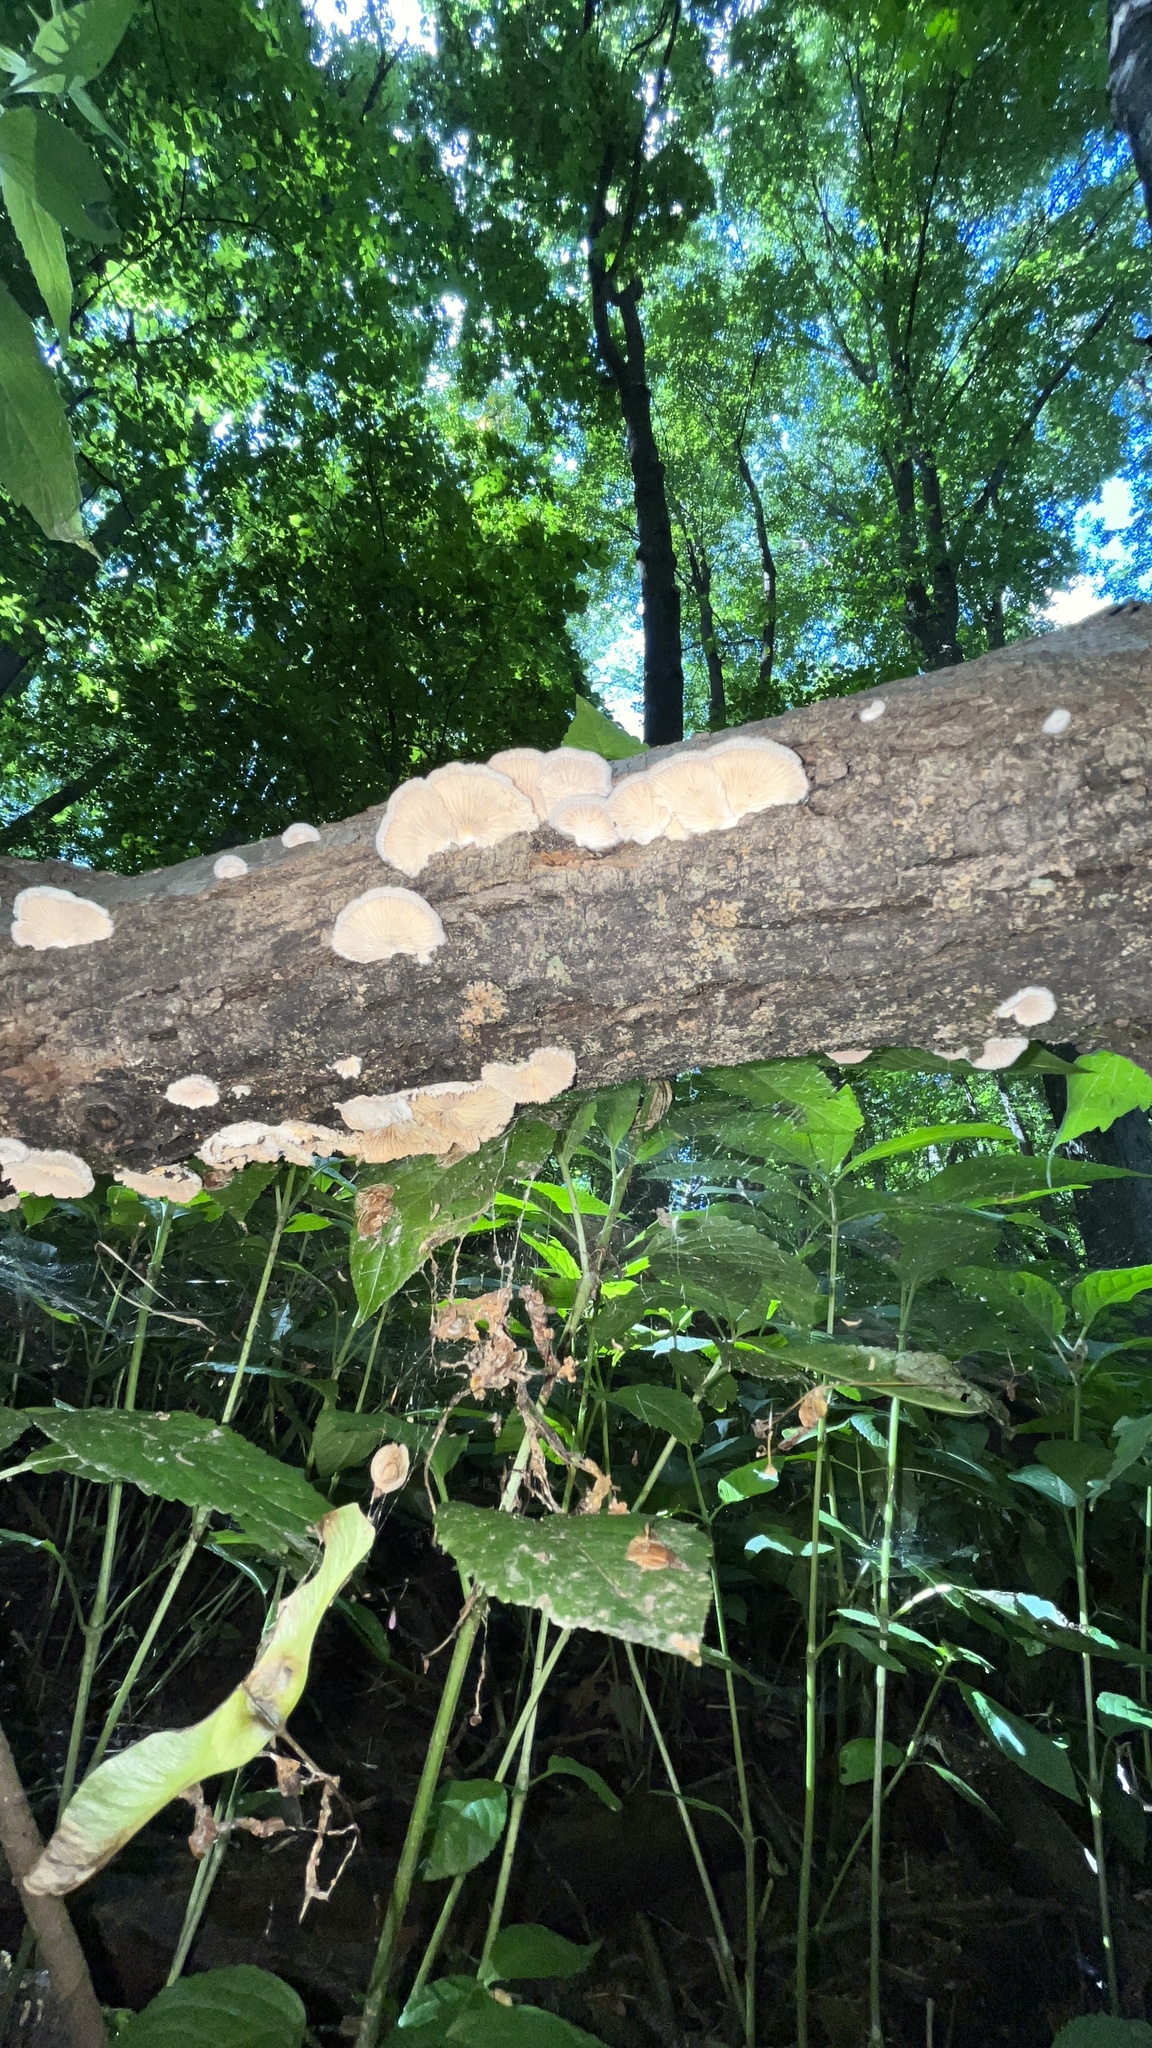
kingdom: Fungi
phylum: Basidiomycota
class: Agaricomycetes
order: Agaricales
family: Schizophyllaceae
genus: Schizophyllum
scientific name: Schizophyllum commune
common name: Common porecrust
